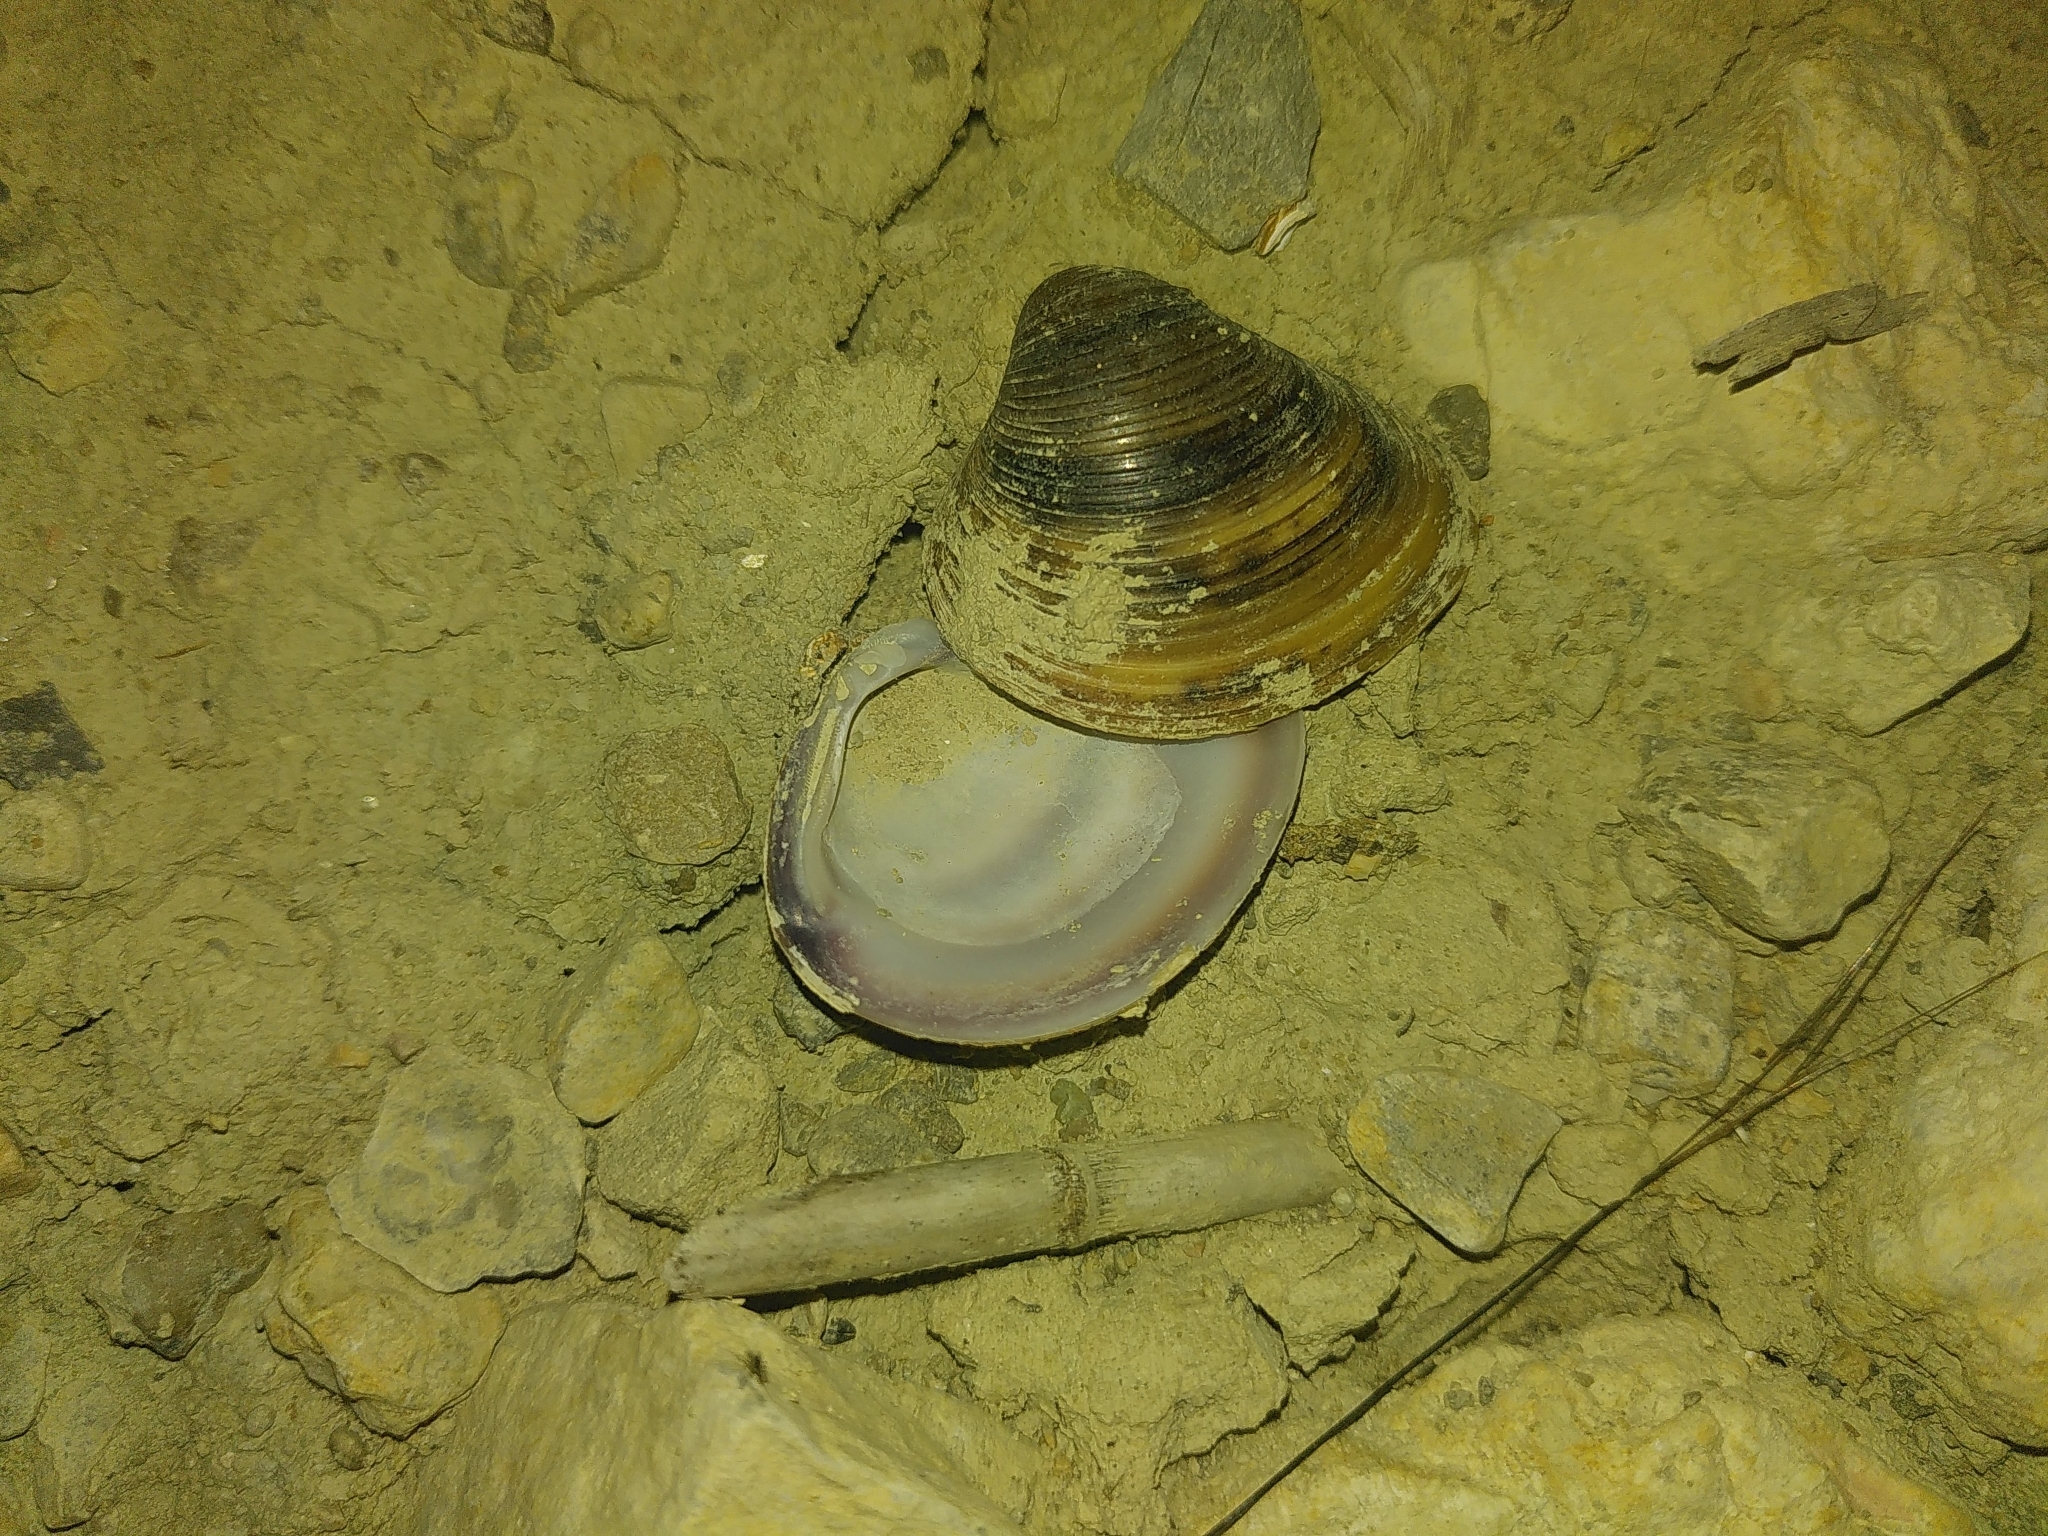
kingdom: Animalia
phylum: Mollusca
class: Bivalvia
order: Venerida
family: Cyrenidae
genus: Corbicula
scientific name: Corbicula fluminea
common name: Asian clam
